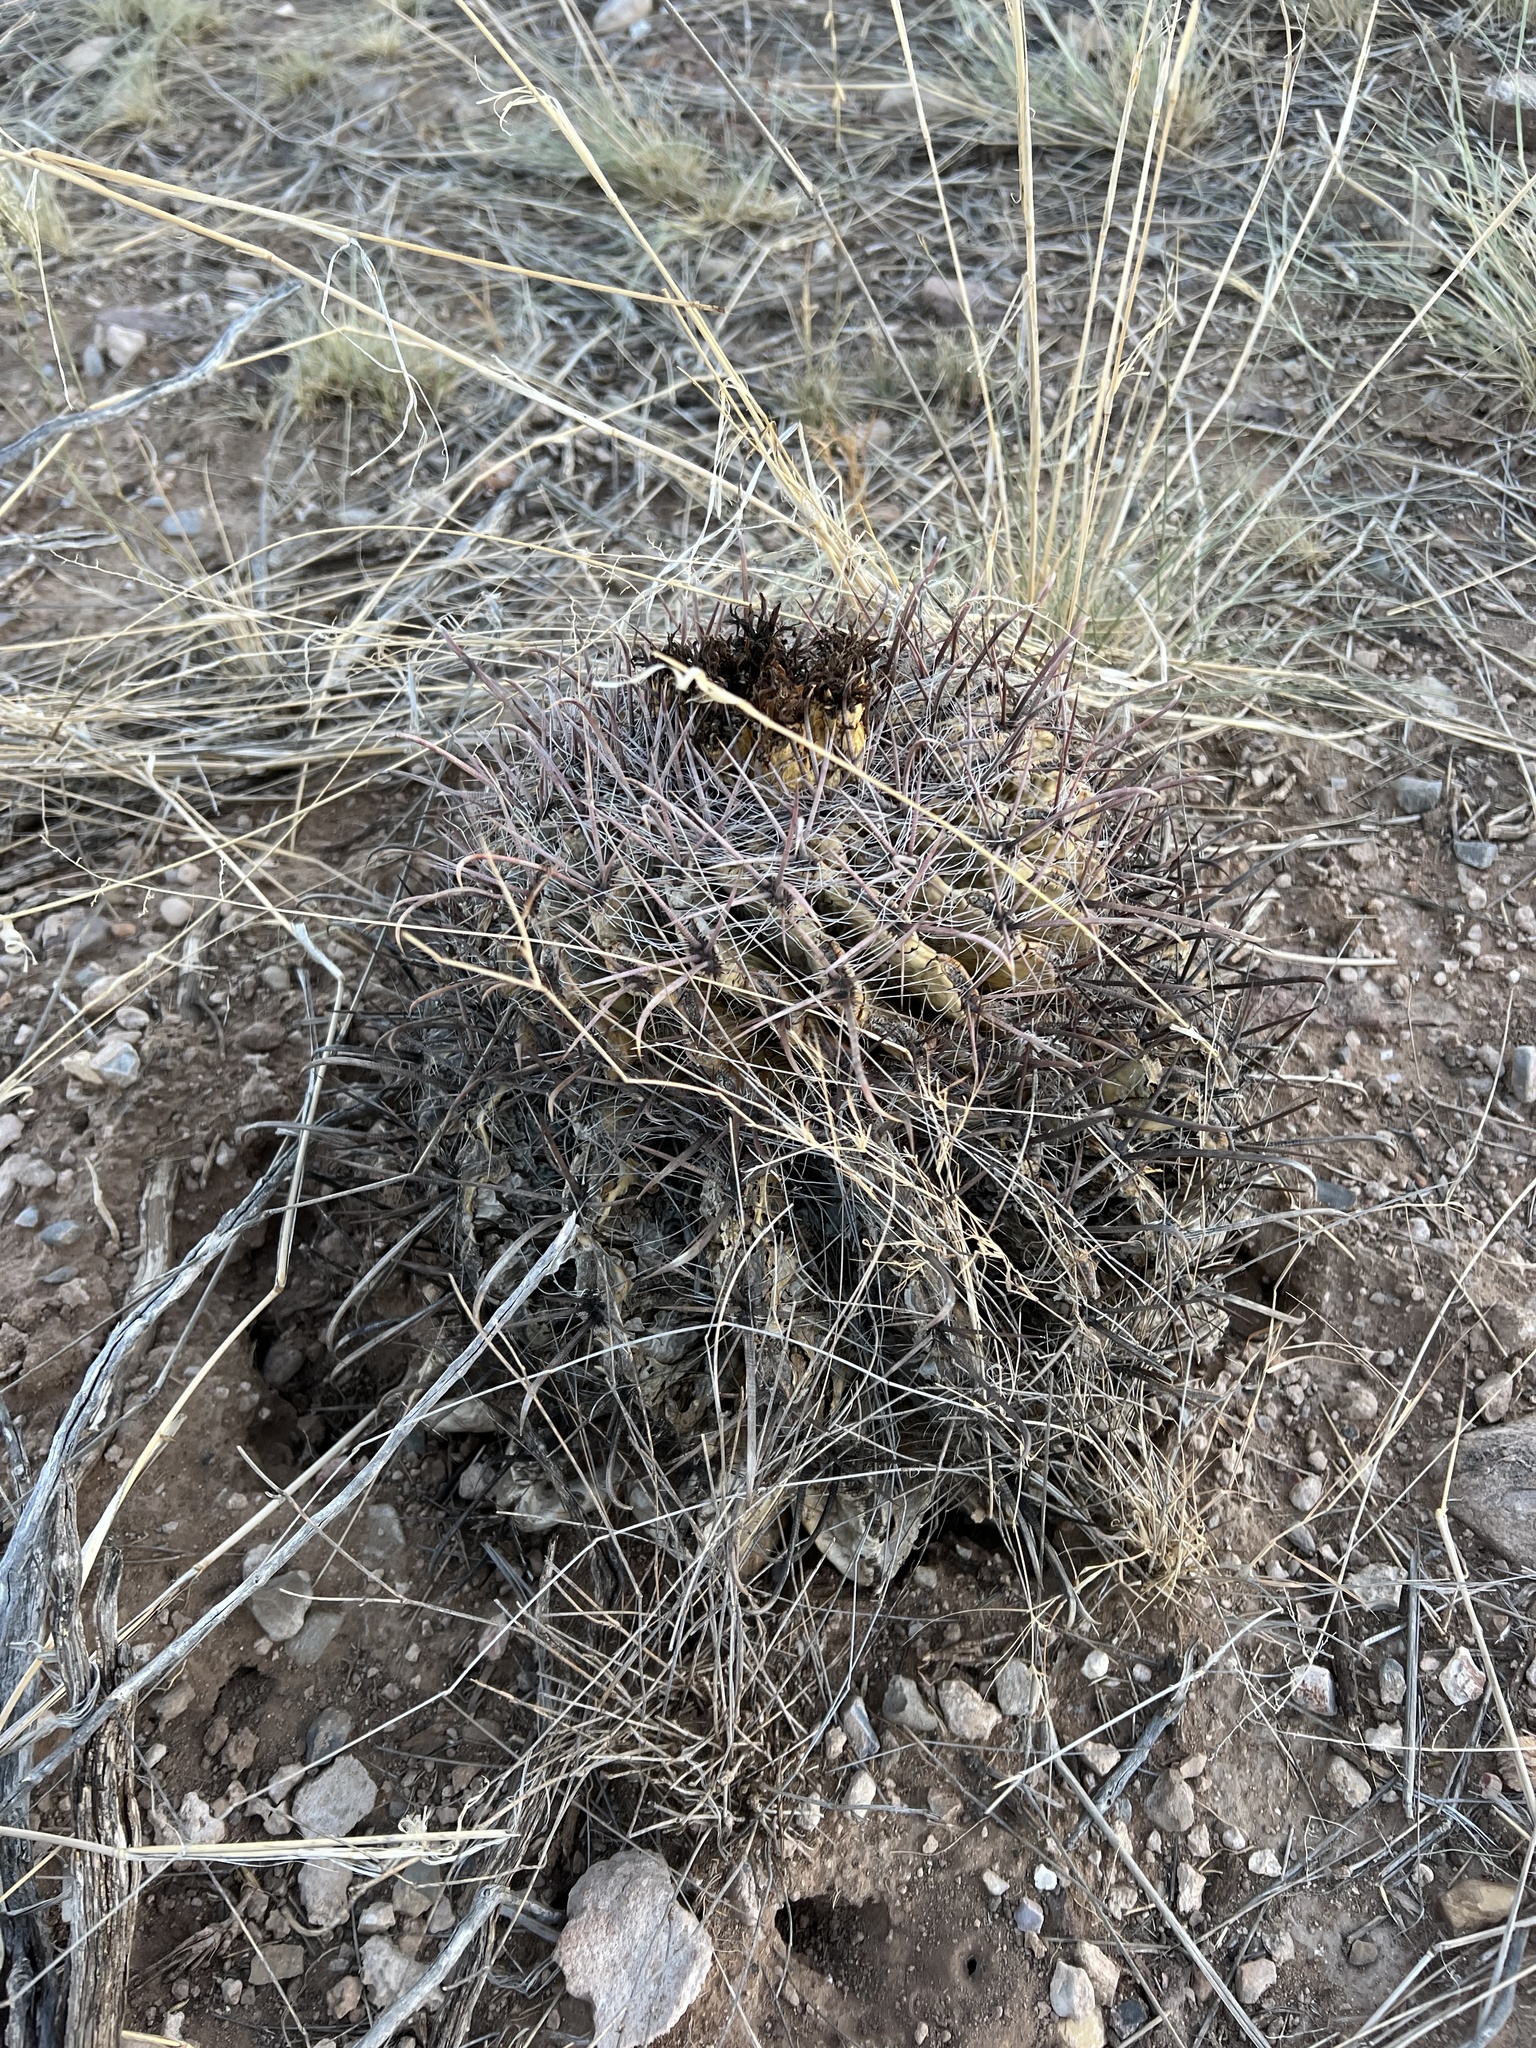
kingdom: Plantae
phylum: Tracheophyta
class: Magnoliopsida
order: Caryophyllales
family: Cactaceae
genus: Ferocactus
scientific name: Ferocactus wislizeni
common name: Candy barrel cactus
